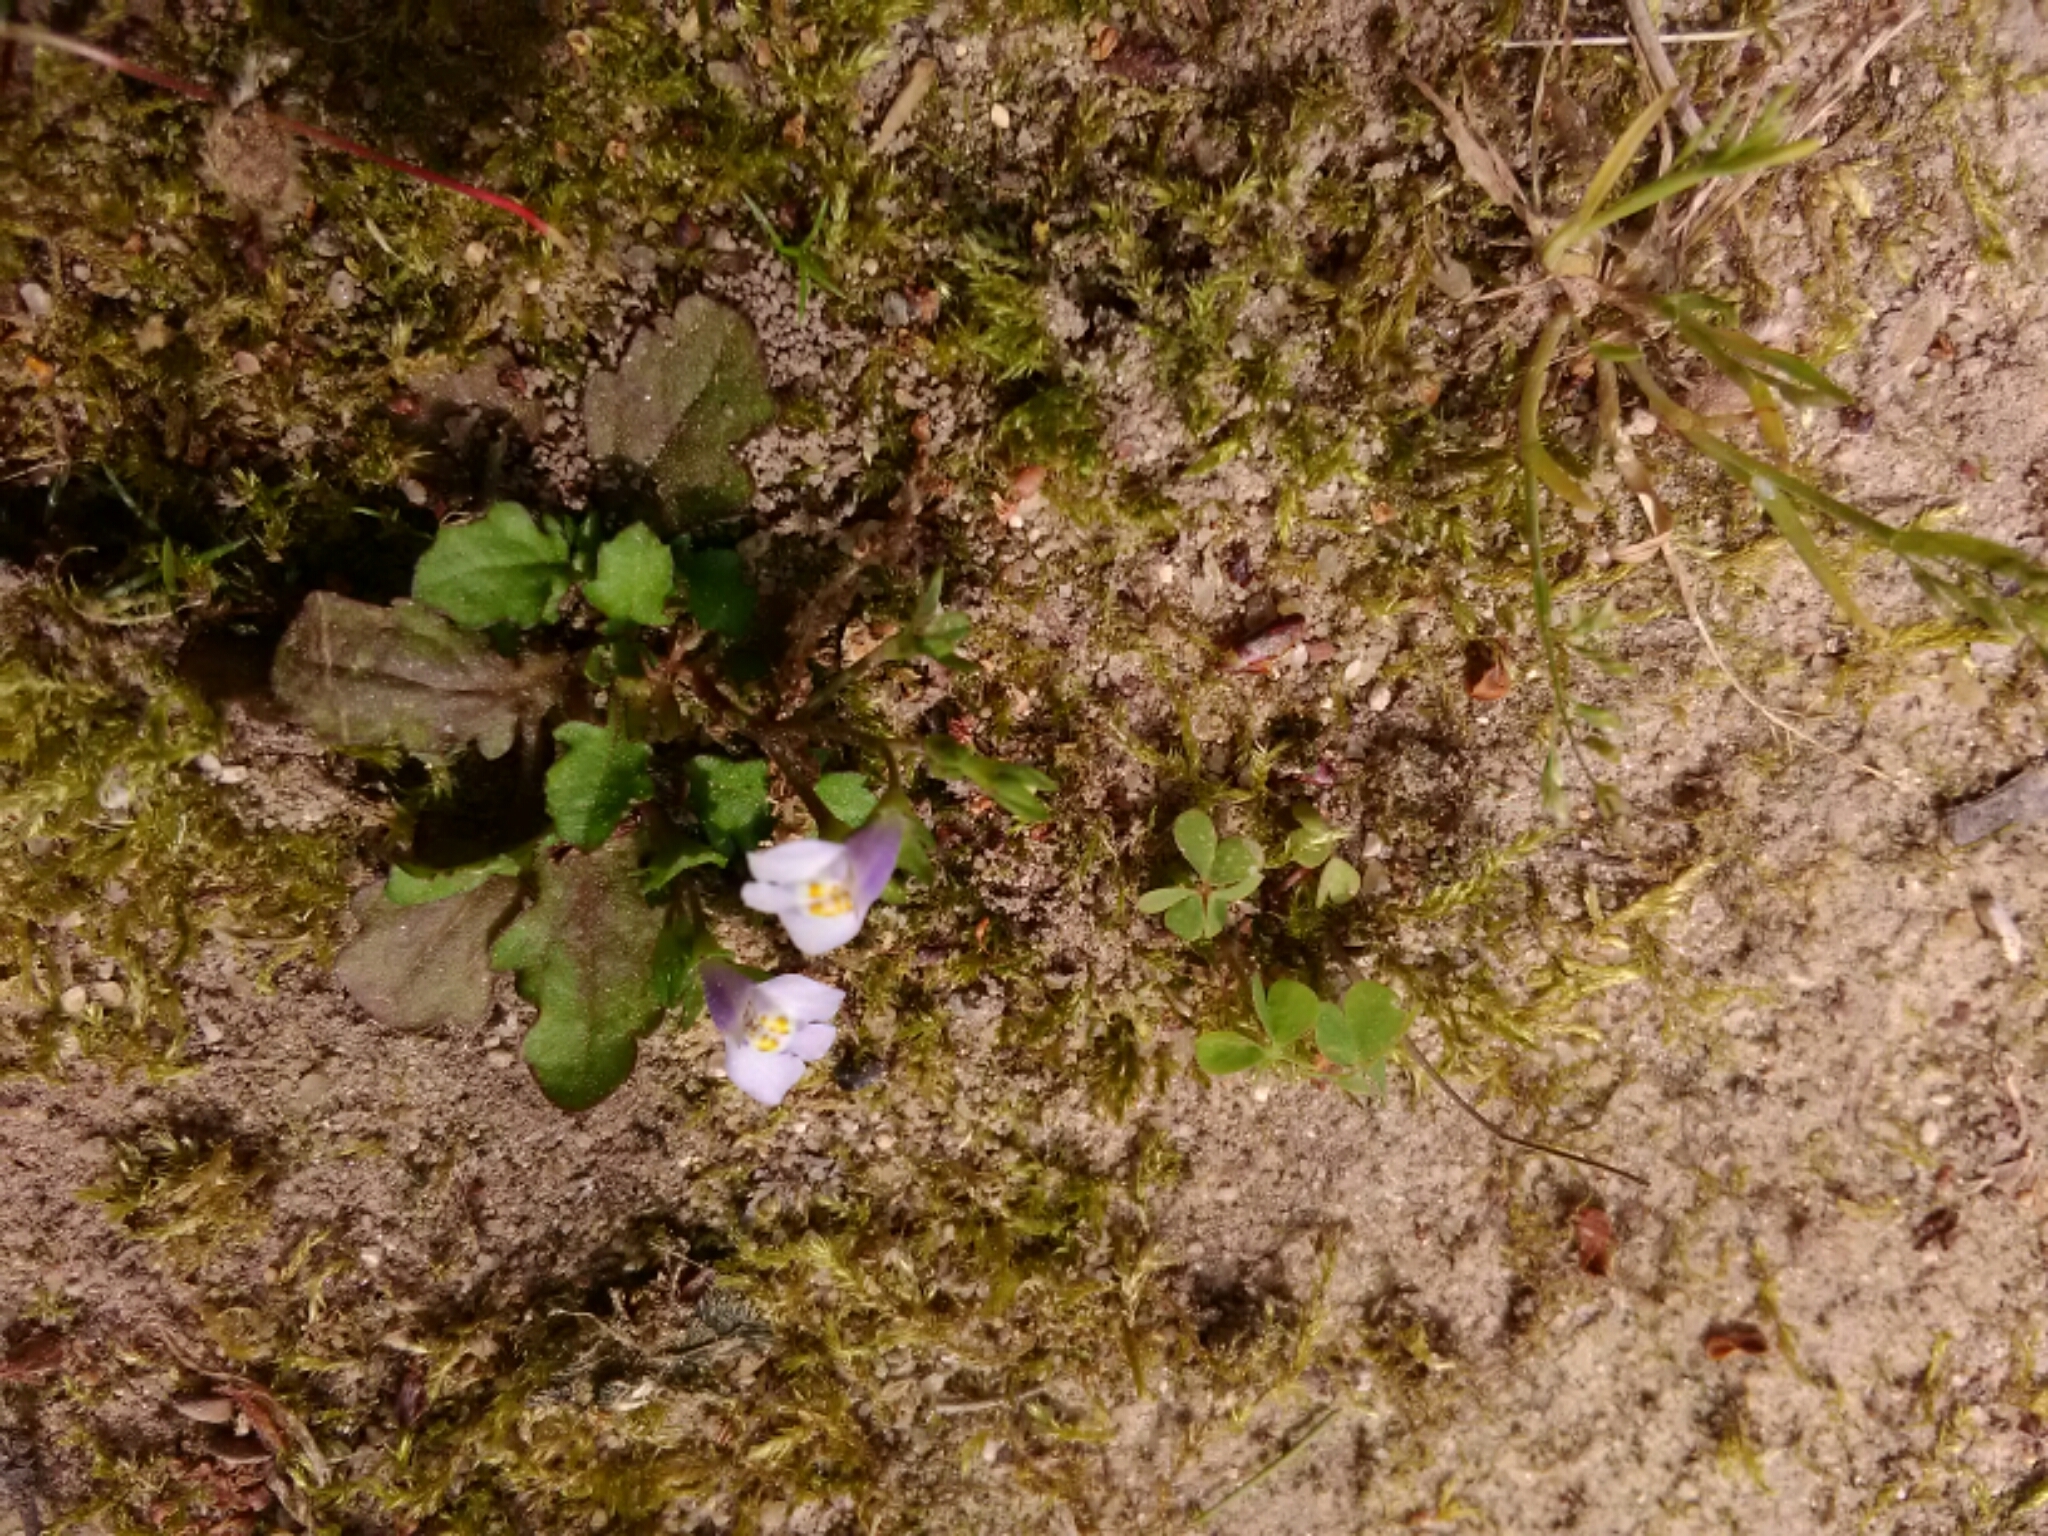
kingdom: Plantae
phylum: Tracheophyta
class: Magnoliopsida
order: Lamiales
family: Mazaceae
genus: Mazus
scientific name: Mazus pumilus
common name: Japanese mazus
